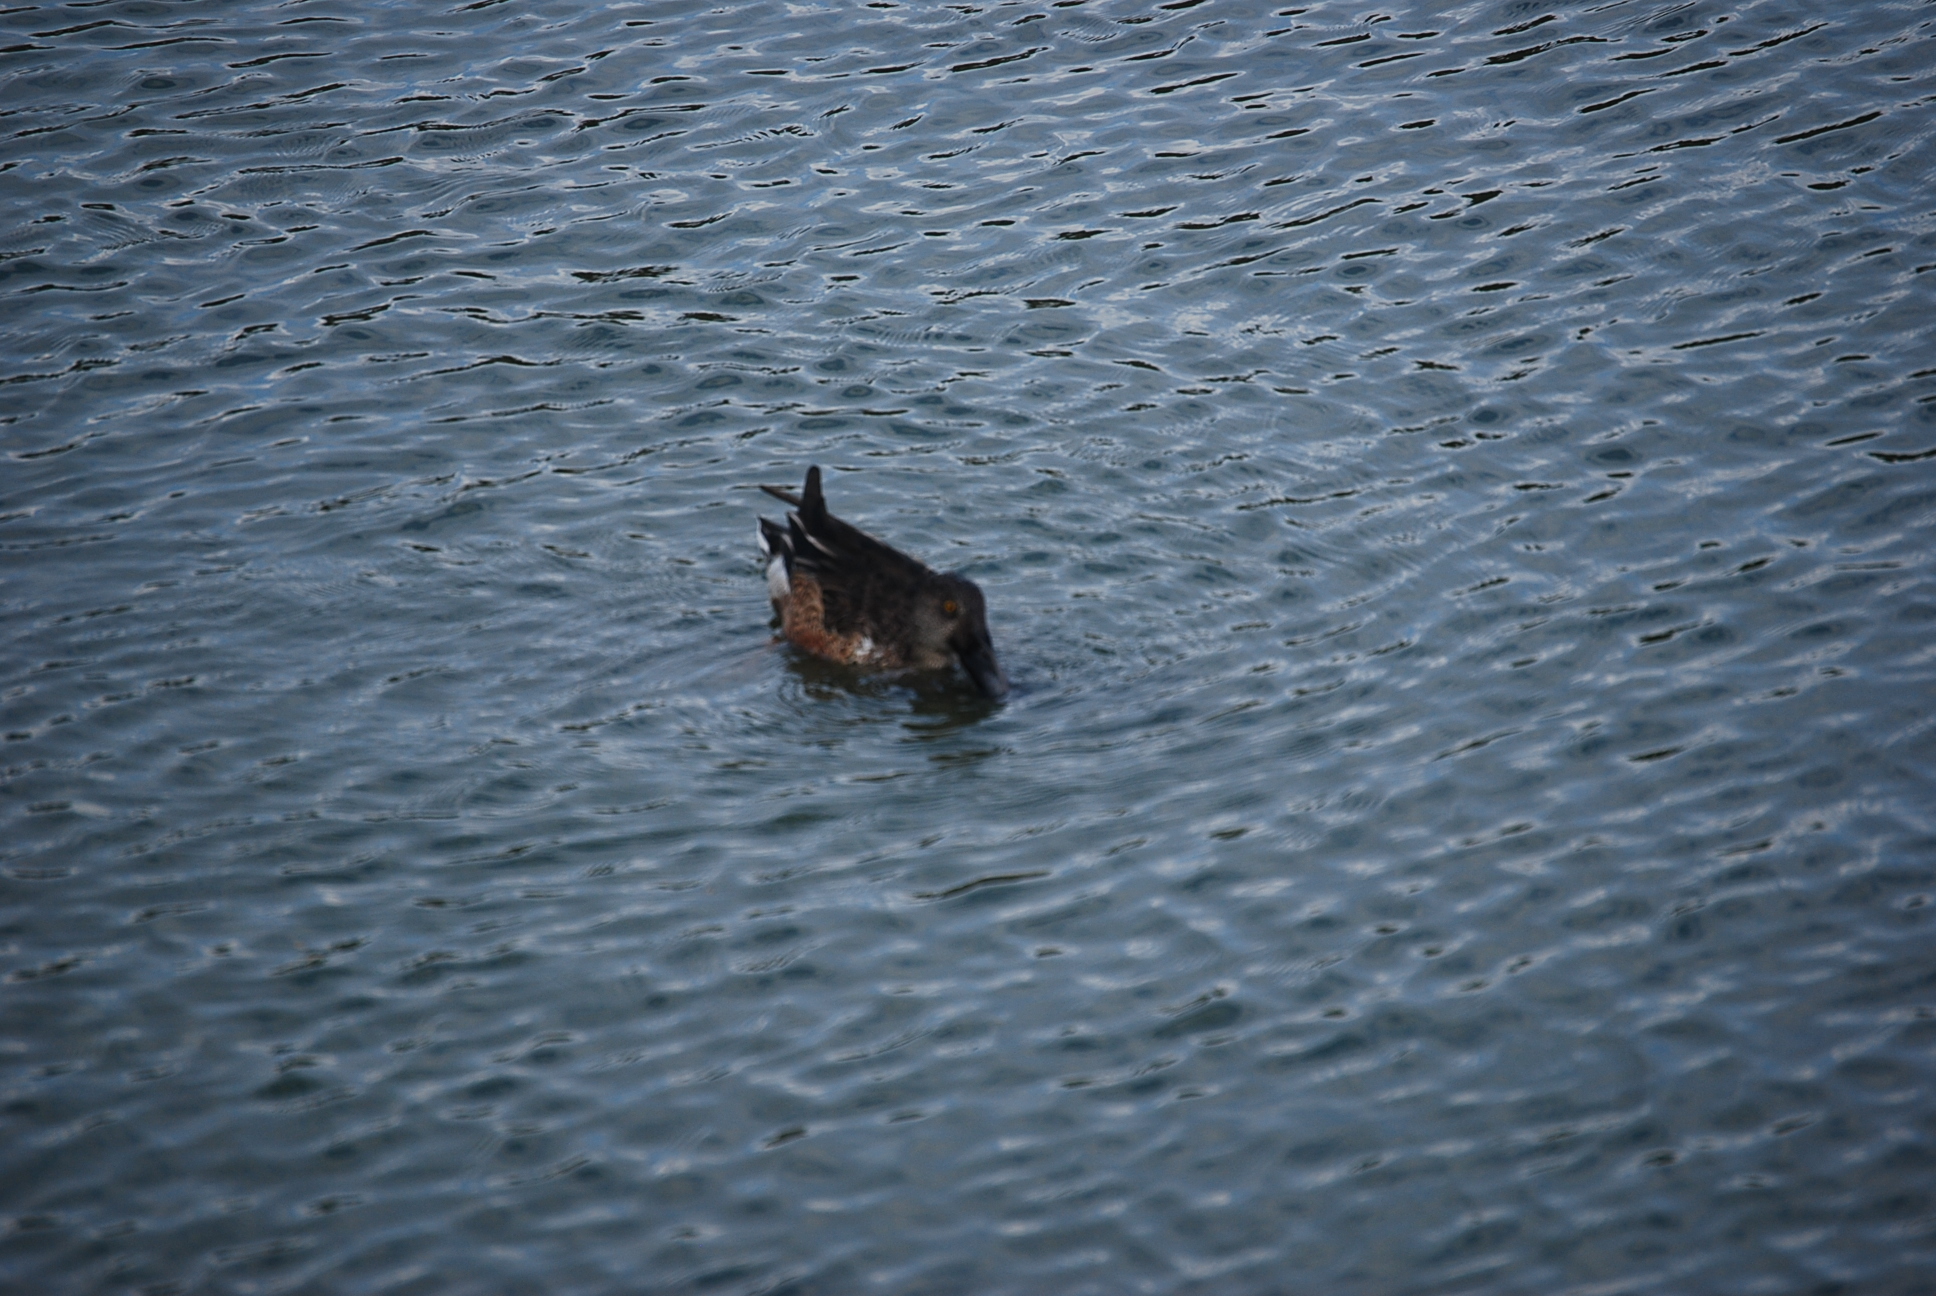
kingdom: Animalia
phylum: Chordata
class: Aves
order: Anseriformes
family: Anatidae
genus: Spatula
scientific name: Spatula clypeata
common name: Northern shoveler
